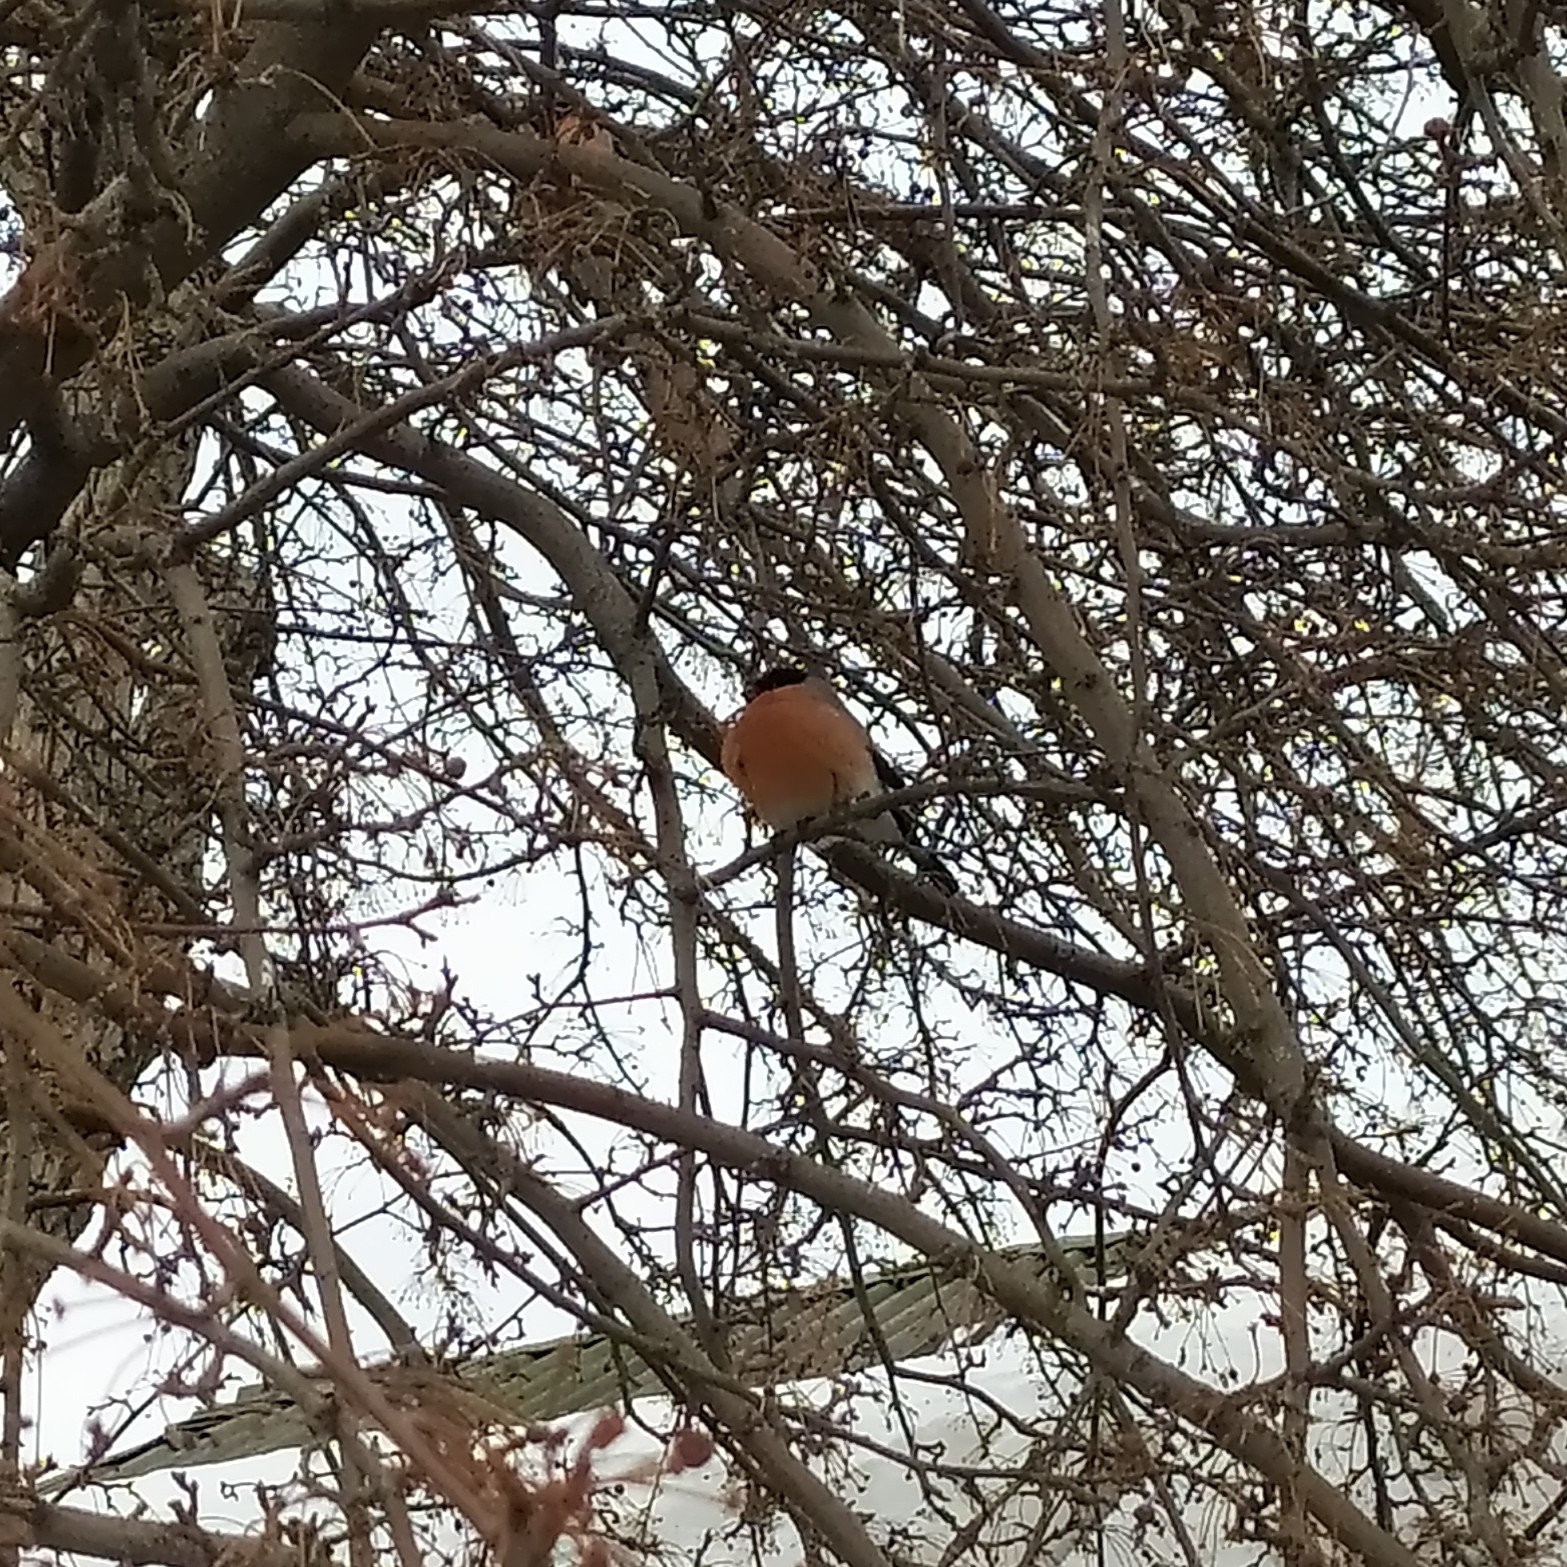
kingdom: Animalia
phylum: Chordata
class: Aves
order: Passeriformes
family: Fringillidae
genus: Pyrrhula
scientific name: Pyrrhula pyrrhula
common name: Eurasian bullfinch
